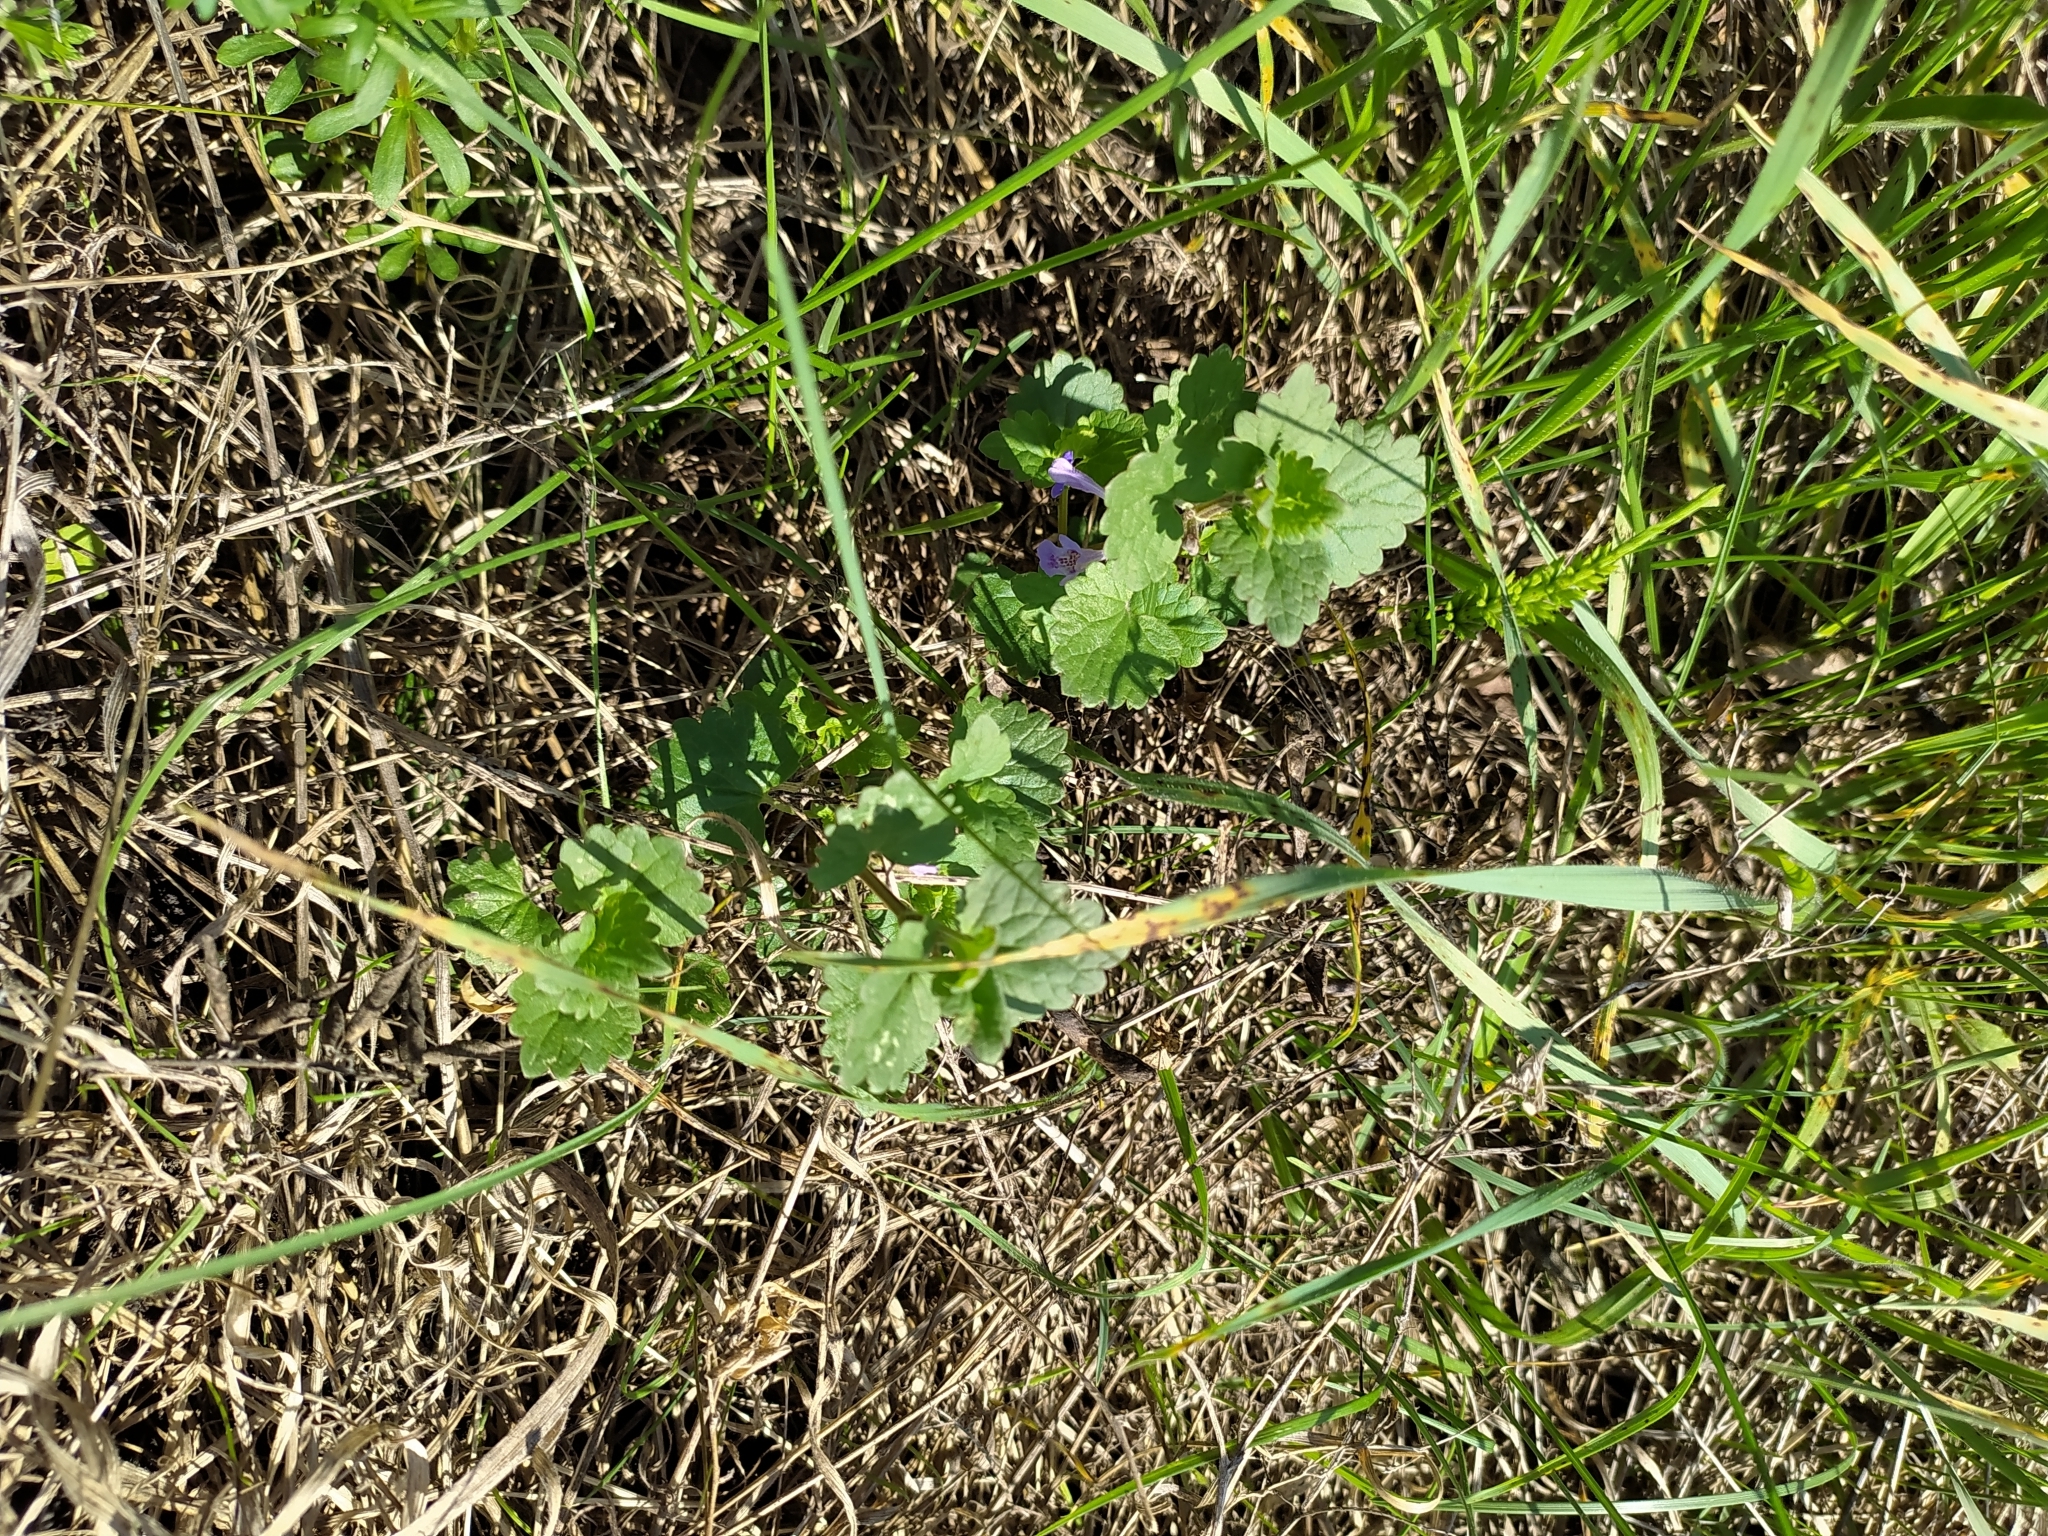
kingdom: Plantae
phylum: Tracheophyta
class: Magnoliopsida
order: Lamiales
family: Lamiaceae
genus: Glechoma
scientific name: Glechoma hederacea
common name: Ground ivy
